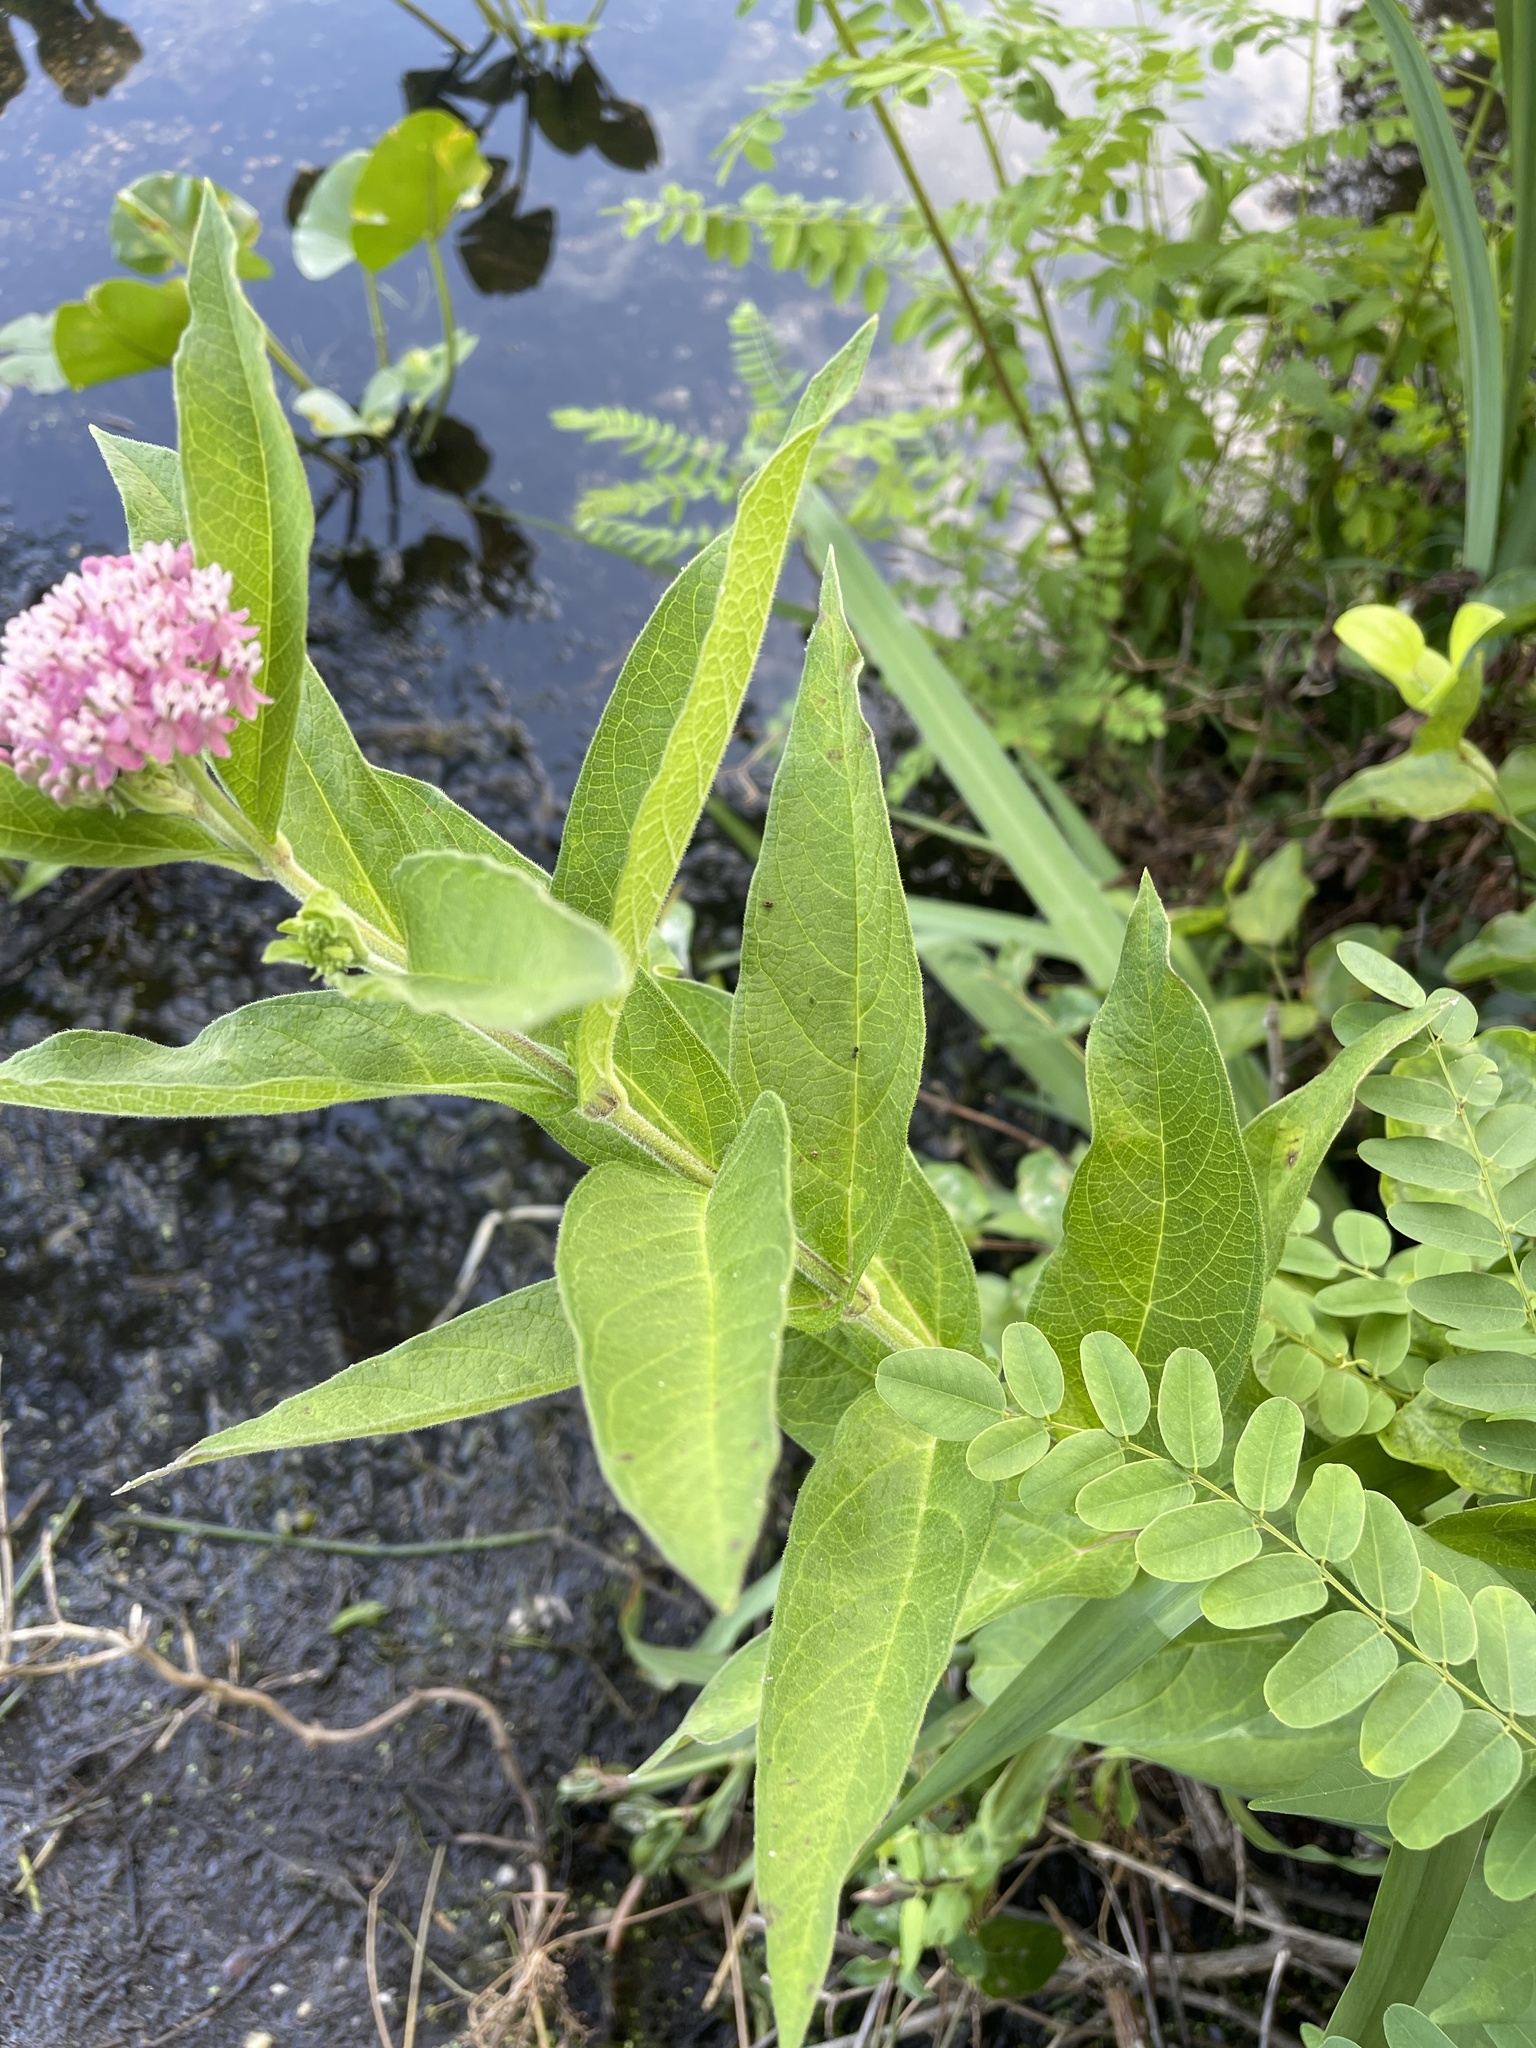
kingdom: Plantae
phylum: Tracheophyta
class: Magnoliopsida
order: Gentianales
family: Apocynaceae
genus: Asclepias
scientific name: Asclepias incarnata
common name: Swamp milkweed
